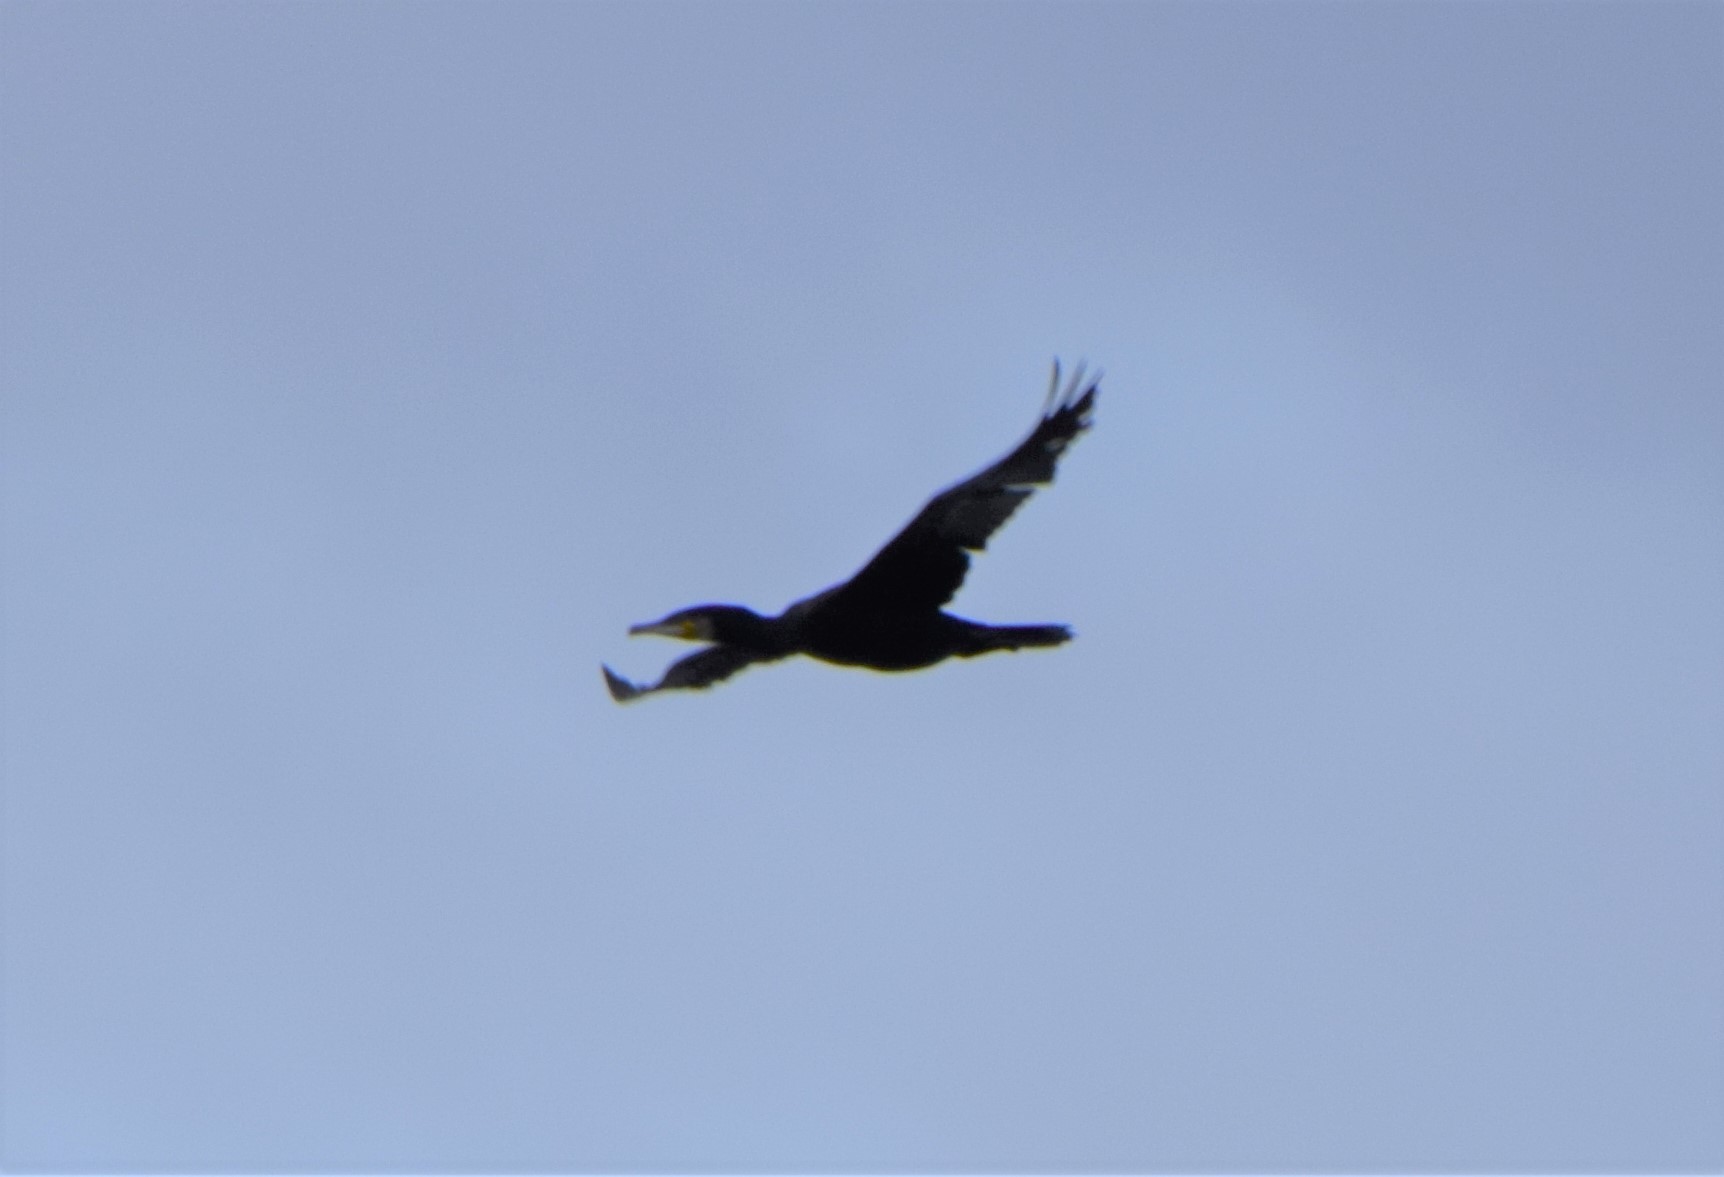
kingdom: Animalia
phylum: Chordata
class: Aves
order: Suliformes
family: Phalacrocoracidae
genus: Phalacrocorax
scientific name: Phalacrocorax carbo
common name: Great cormorant
